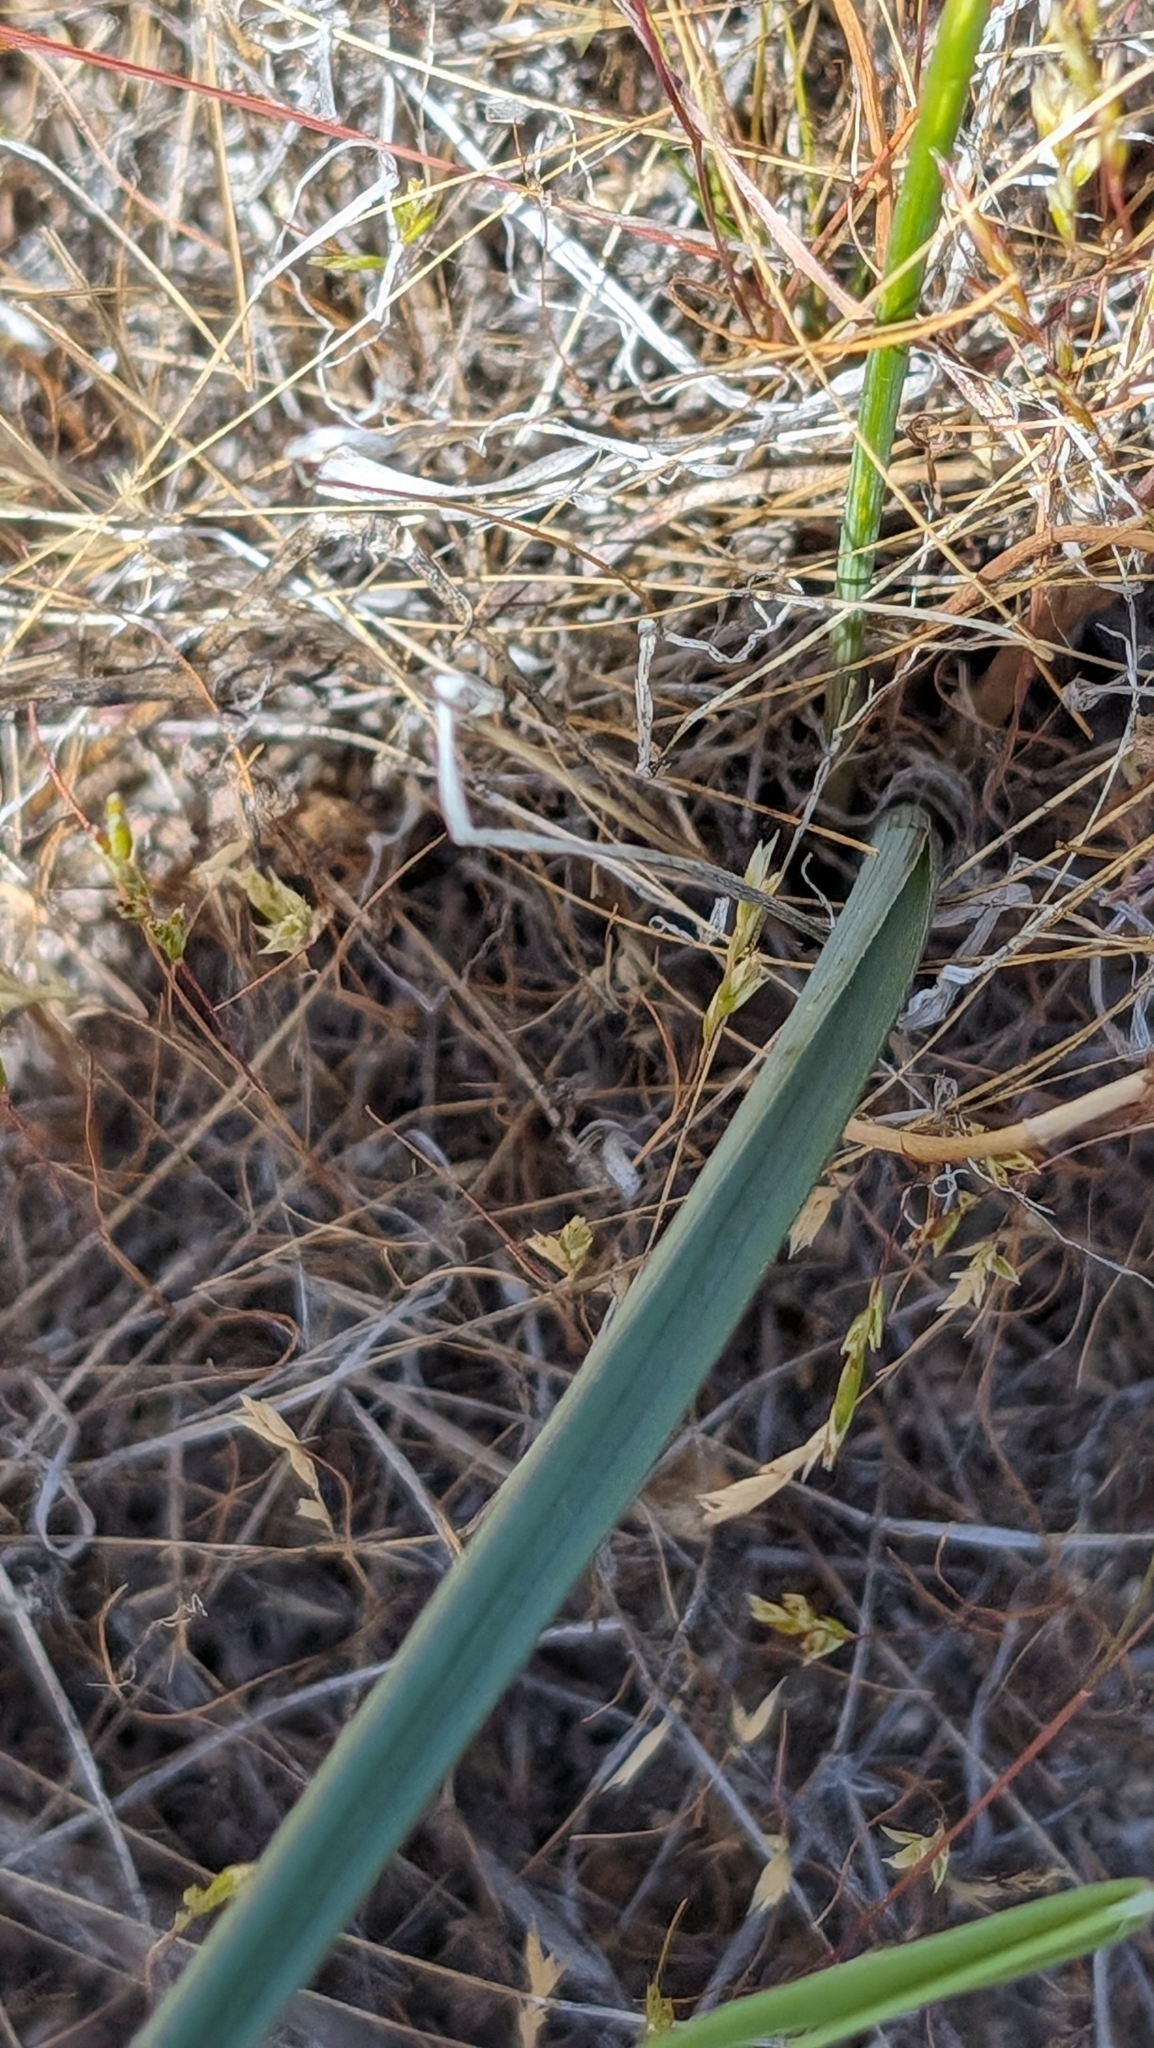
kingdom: Plantae
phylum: Tracheophyta
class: Liliopsida
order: Asparagales
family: Asparagaceae
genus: Dipterostemon
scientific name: Dipterostemon capitatus
